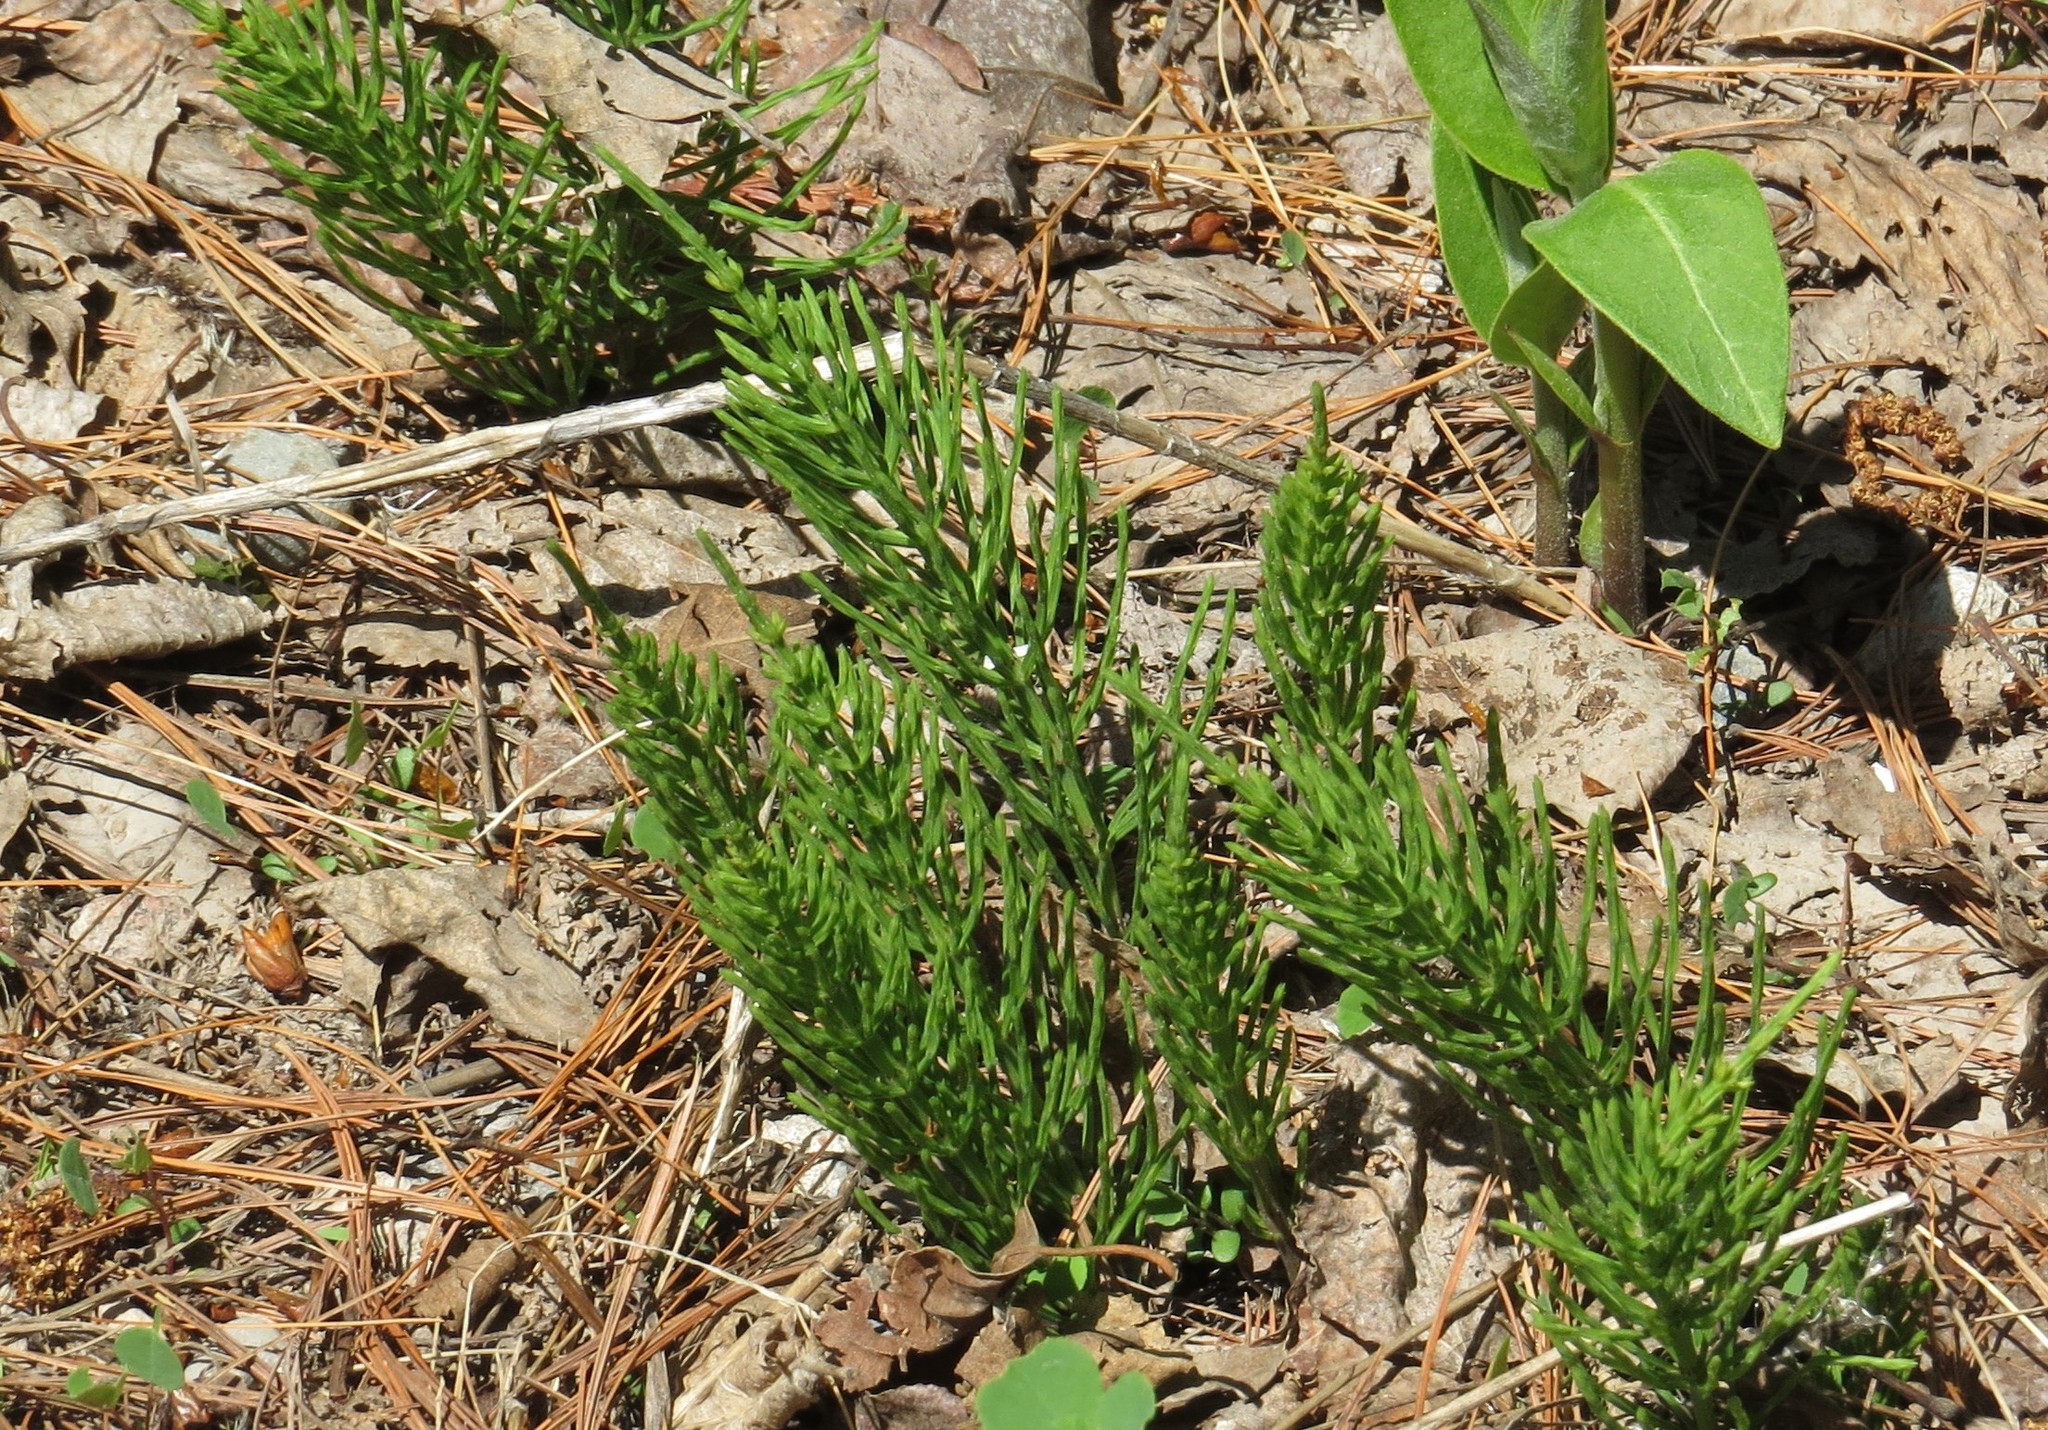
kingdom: Plantae
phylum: Tracheophyta
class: Polypodiopsida
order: Equisetales
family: Equisetaceae
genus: Equisetum
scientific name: Equisetum arvense
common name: Field horsetail
